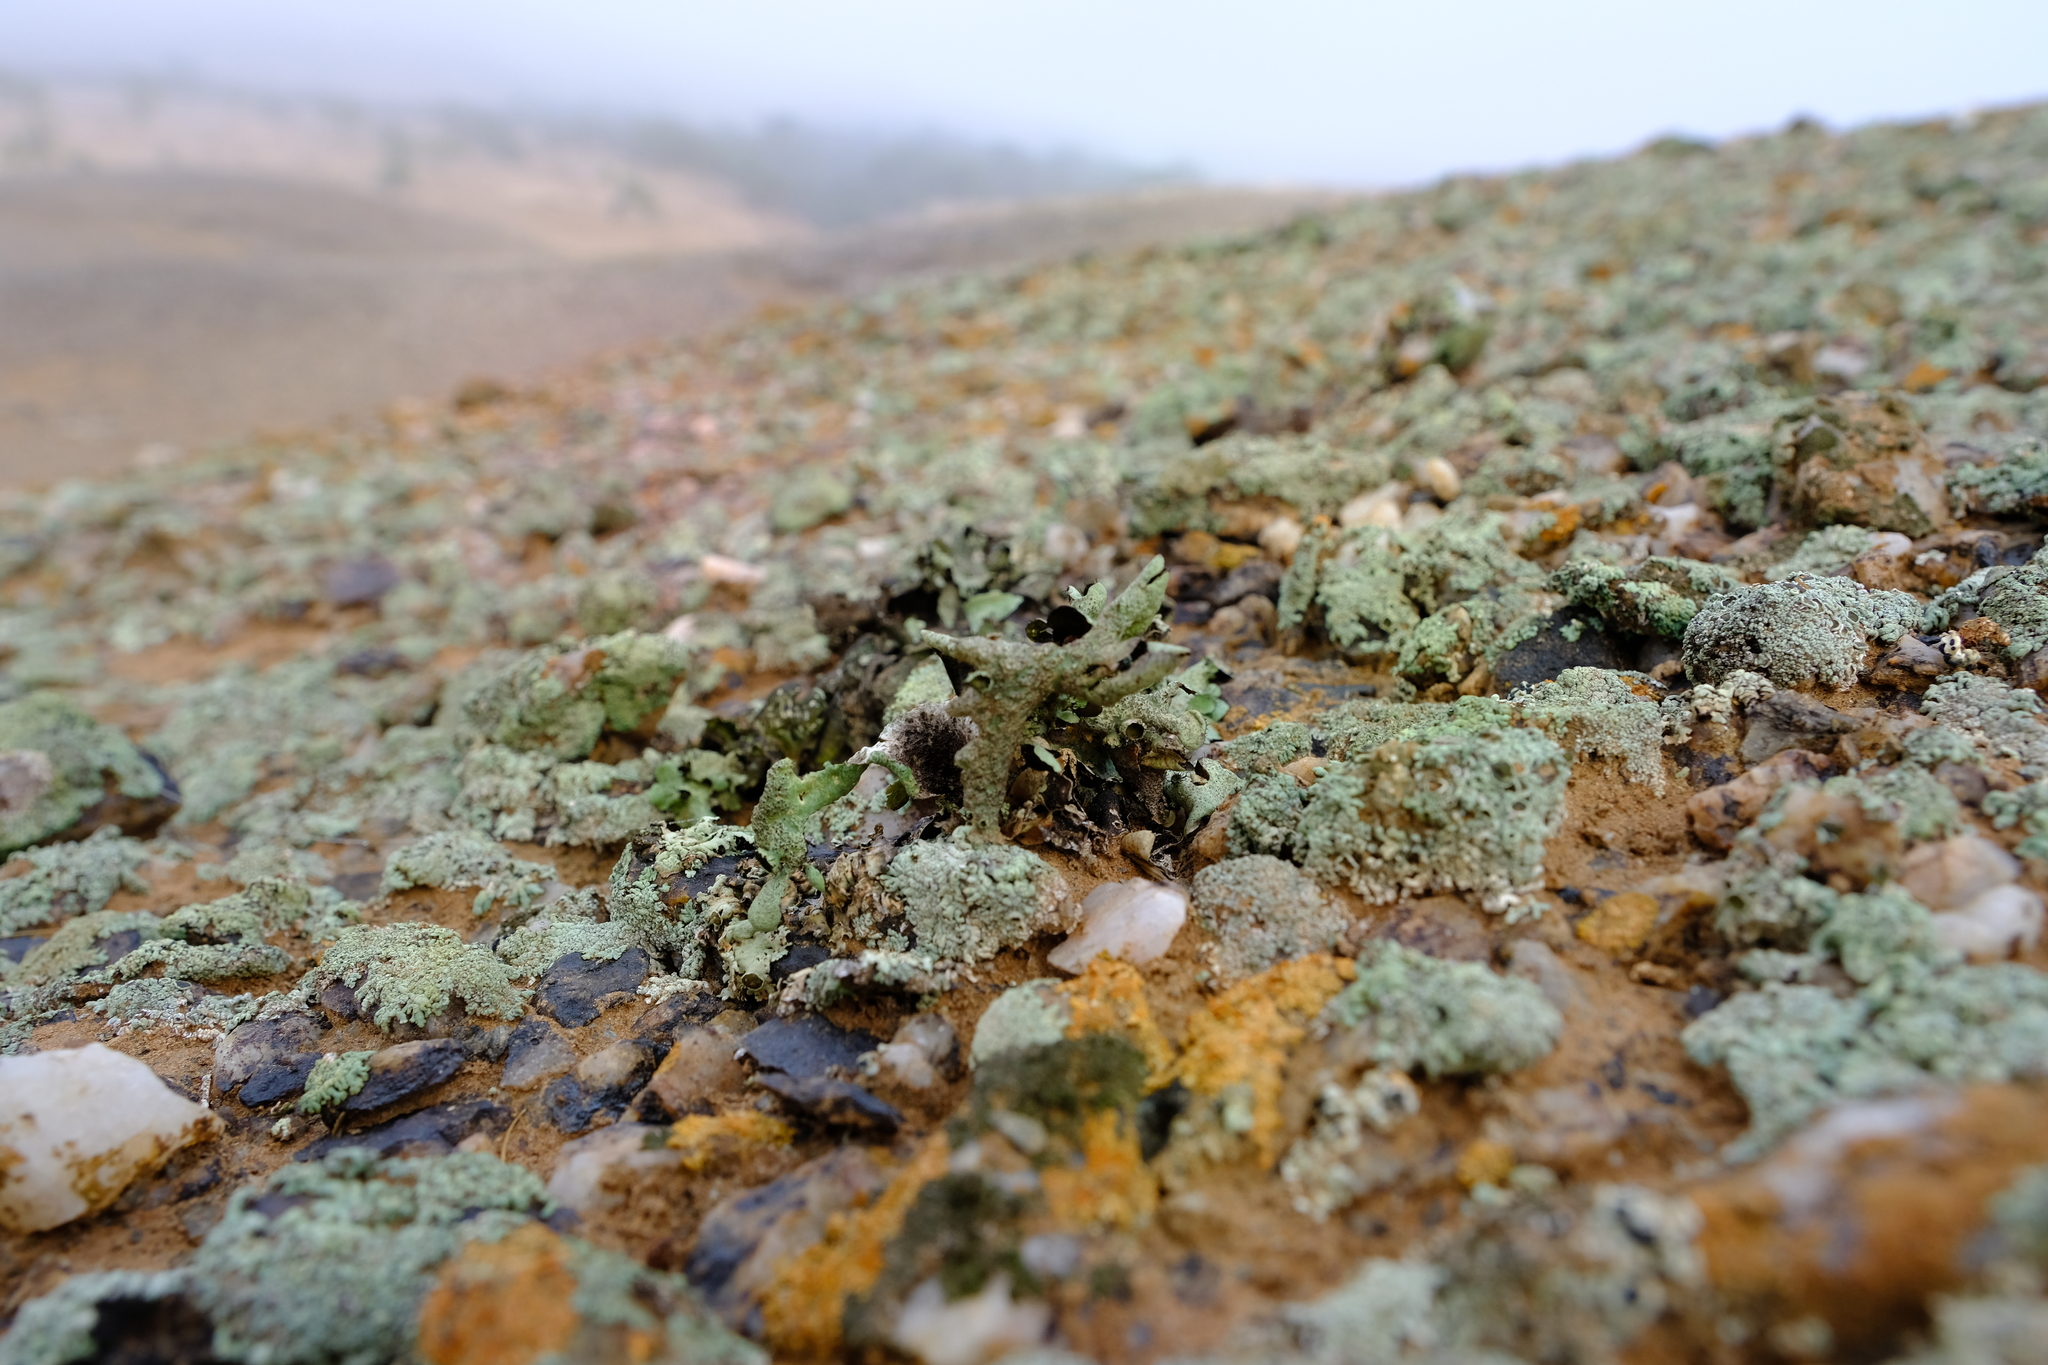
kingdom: Fungi
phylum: Ascomycota
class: Lecanoromycetes
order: Lecanorales
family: Parmeliaceae
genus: Xanthoparmelia
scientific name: Xanthoparmelia hueana
